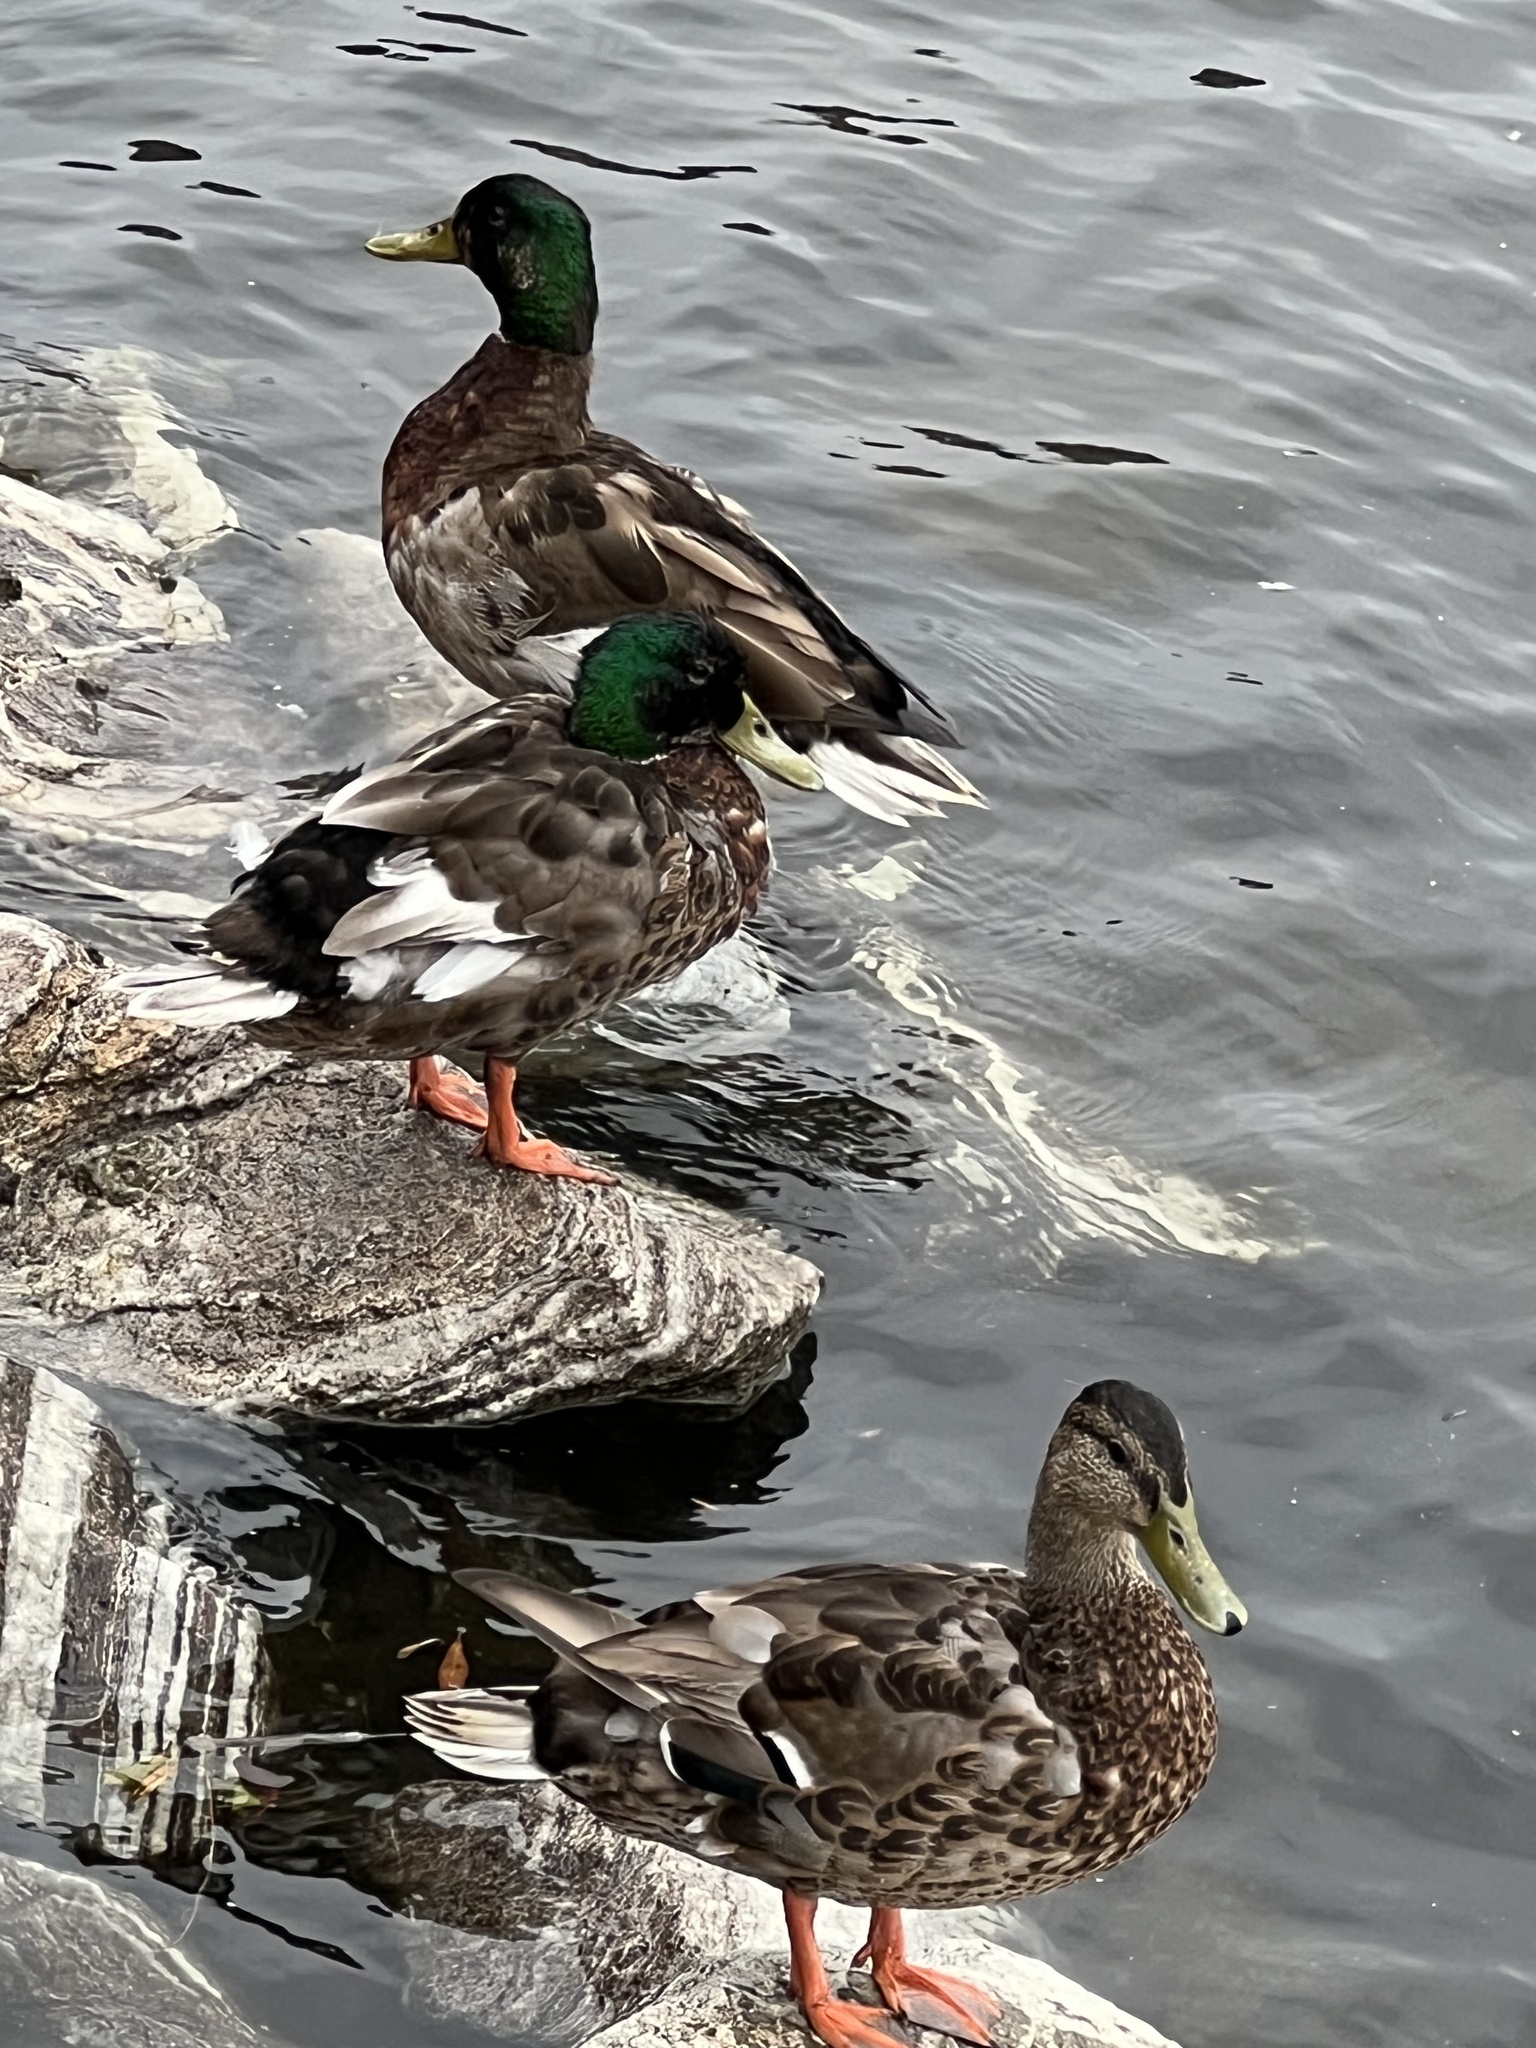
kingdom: Animalia
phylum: Chordata
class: Aves
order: Anseriformes
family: Anatidae
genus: Anas
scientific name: Anas platyrhynchos
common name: Mallard
